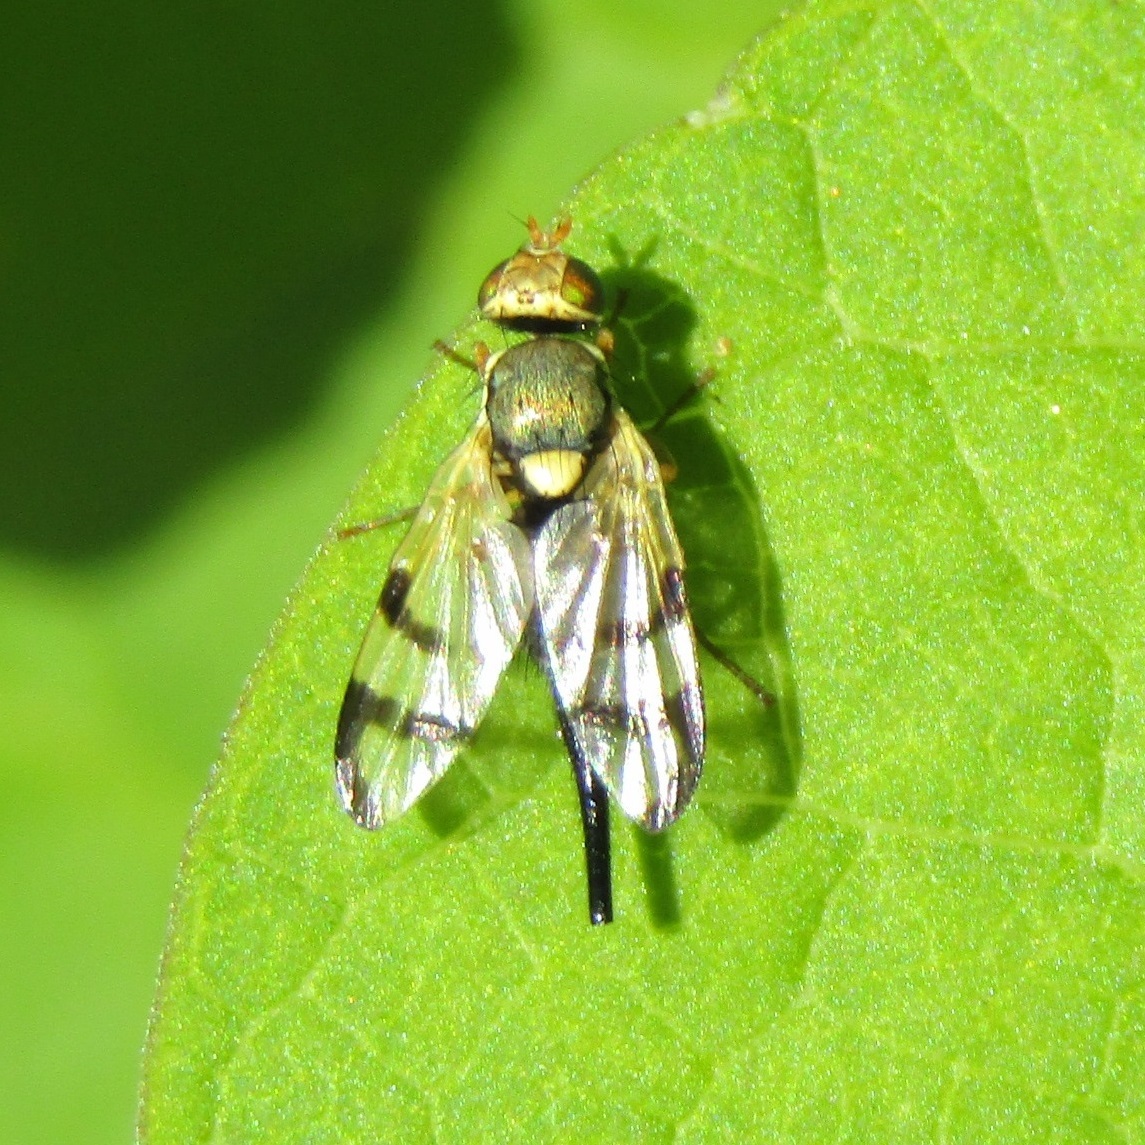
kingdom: Animalia
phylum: Arthropoda
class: Insecta
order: Diptera
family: Tephritidae
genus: Urophora
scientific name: Urophora stylata
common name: Fruit fly
